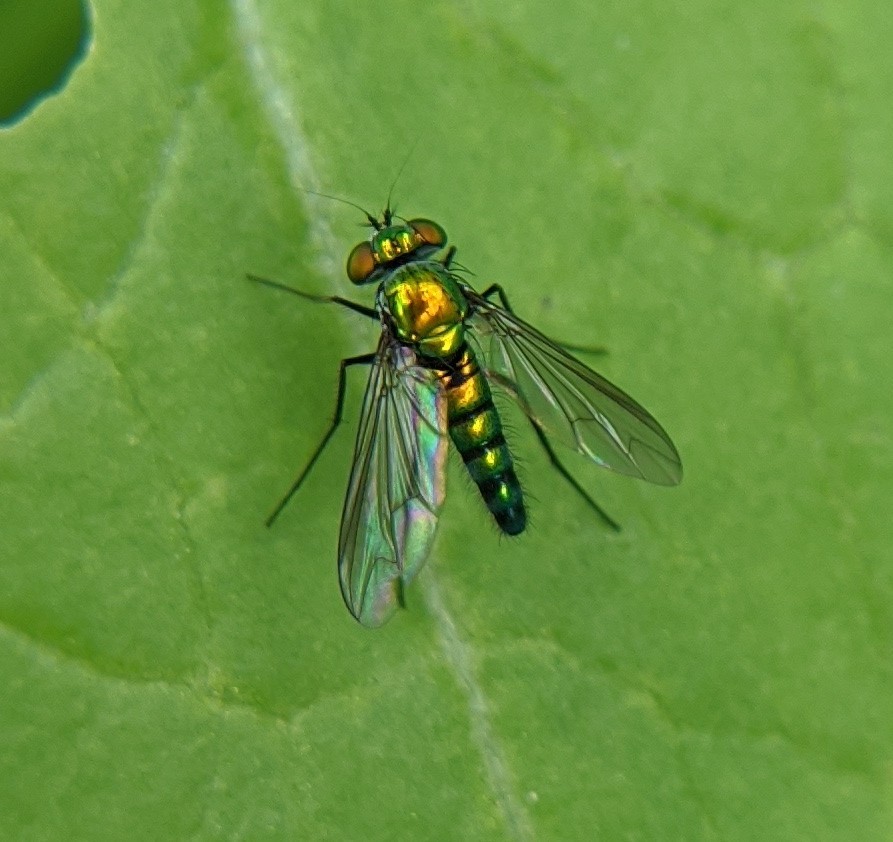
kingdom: Animalia
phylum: Arthropoda
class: Insecta
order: Diptera
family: Dolichopodidae
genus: Condylostylus
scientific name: Condylostylus longicornis
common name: Long-legged fly
